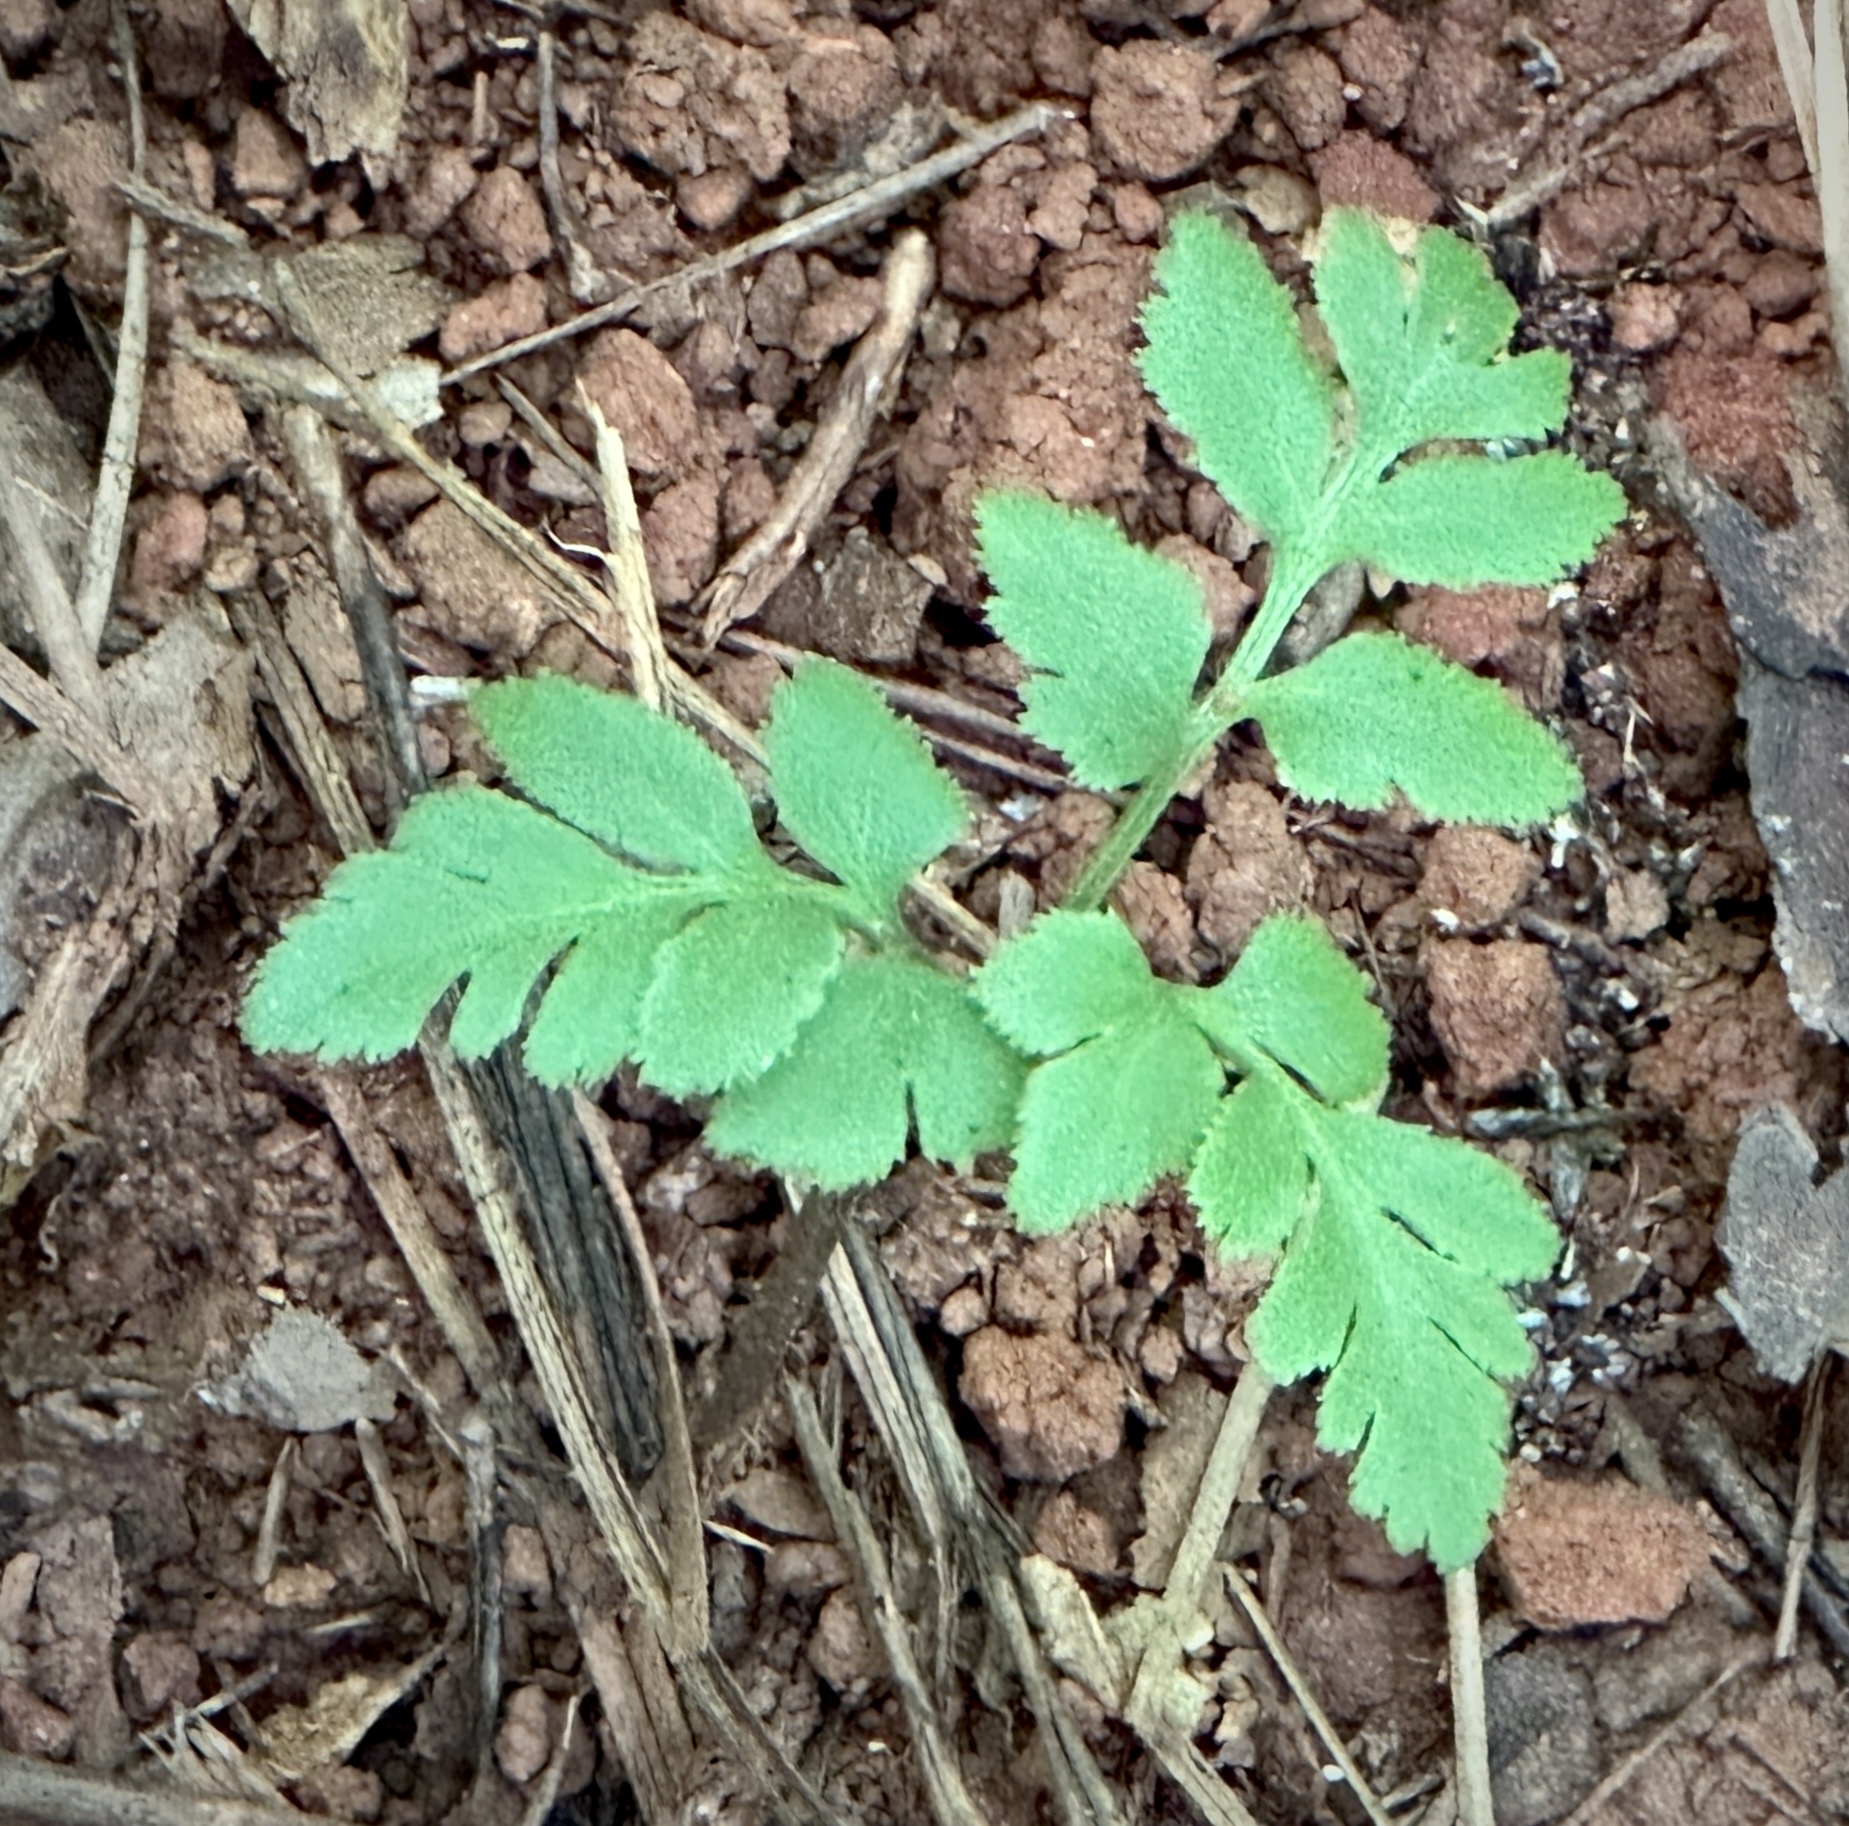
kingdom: Plantae
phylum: Tracheophyta
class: Polypodiopsida
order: Ophioglossales
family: Ophioglossaceae
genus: Sceptridium
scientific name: Sceptridium dissectum
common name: Cut-leaved grapefern
